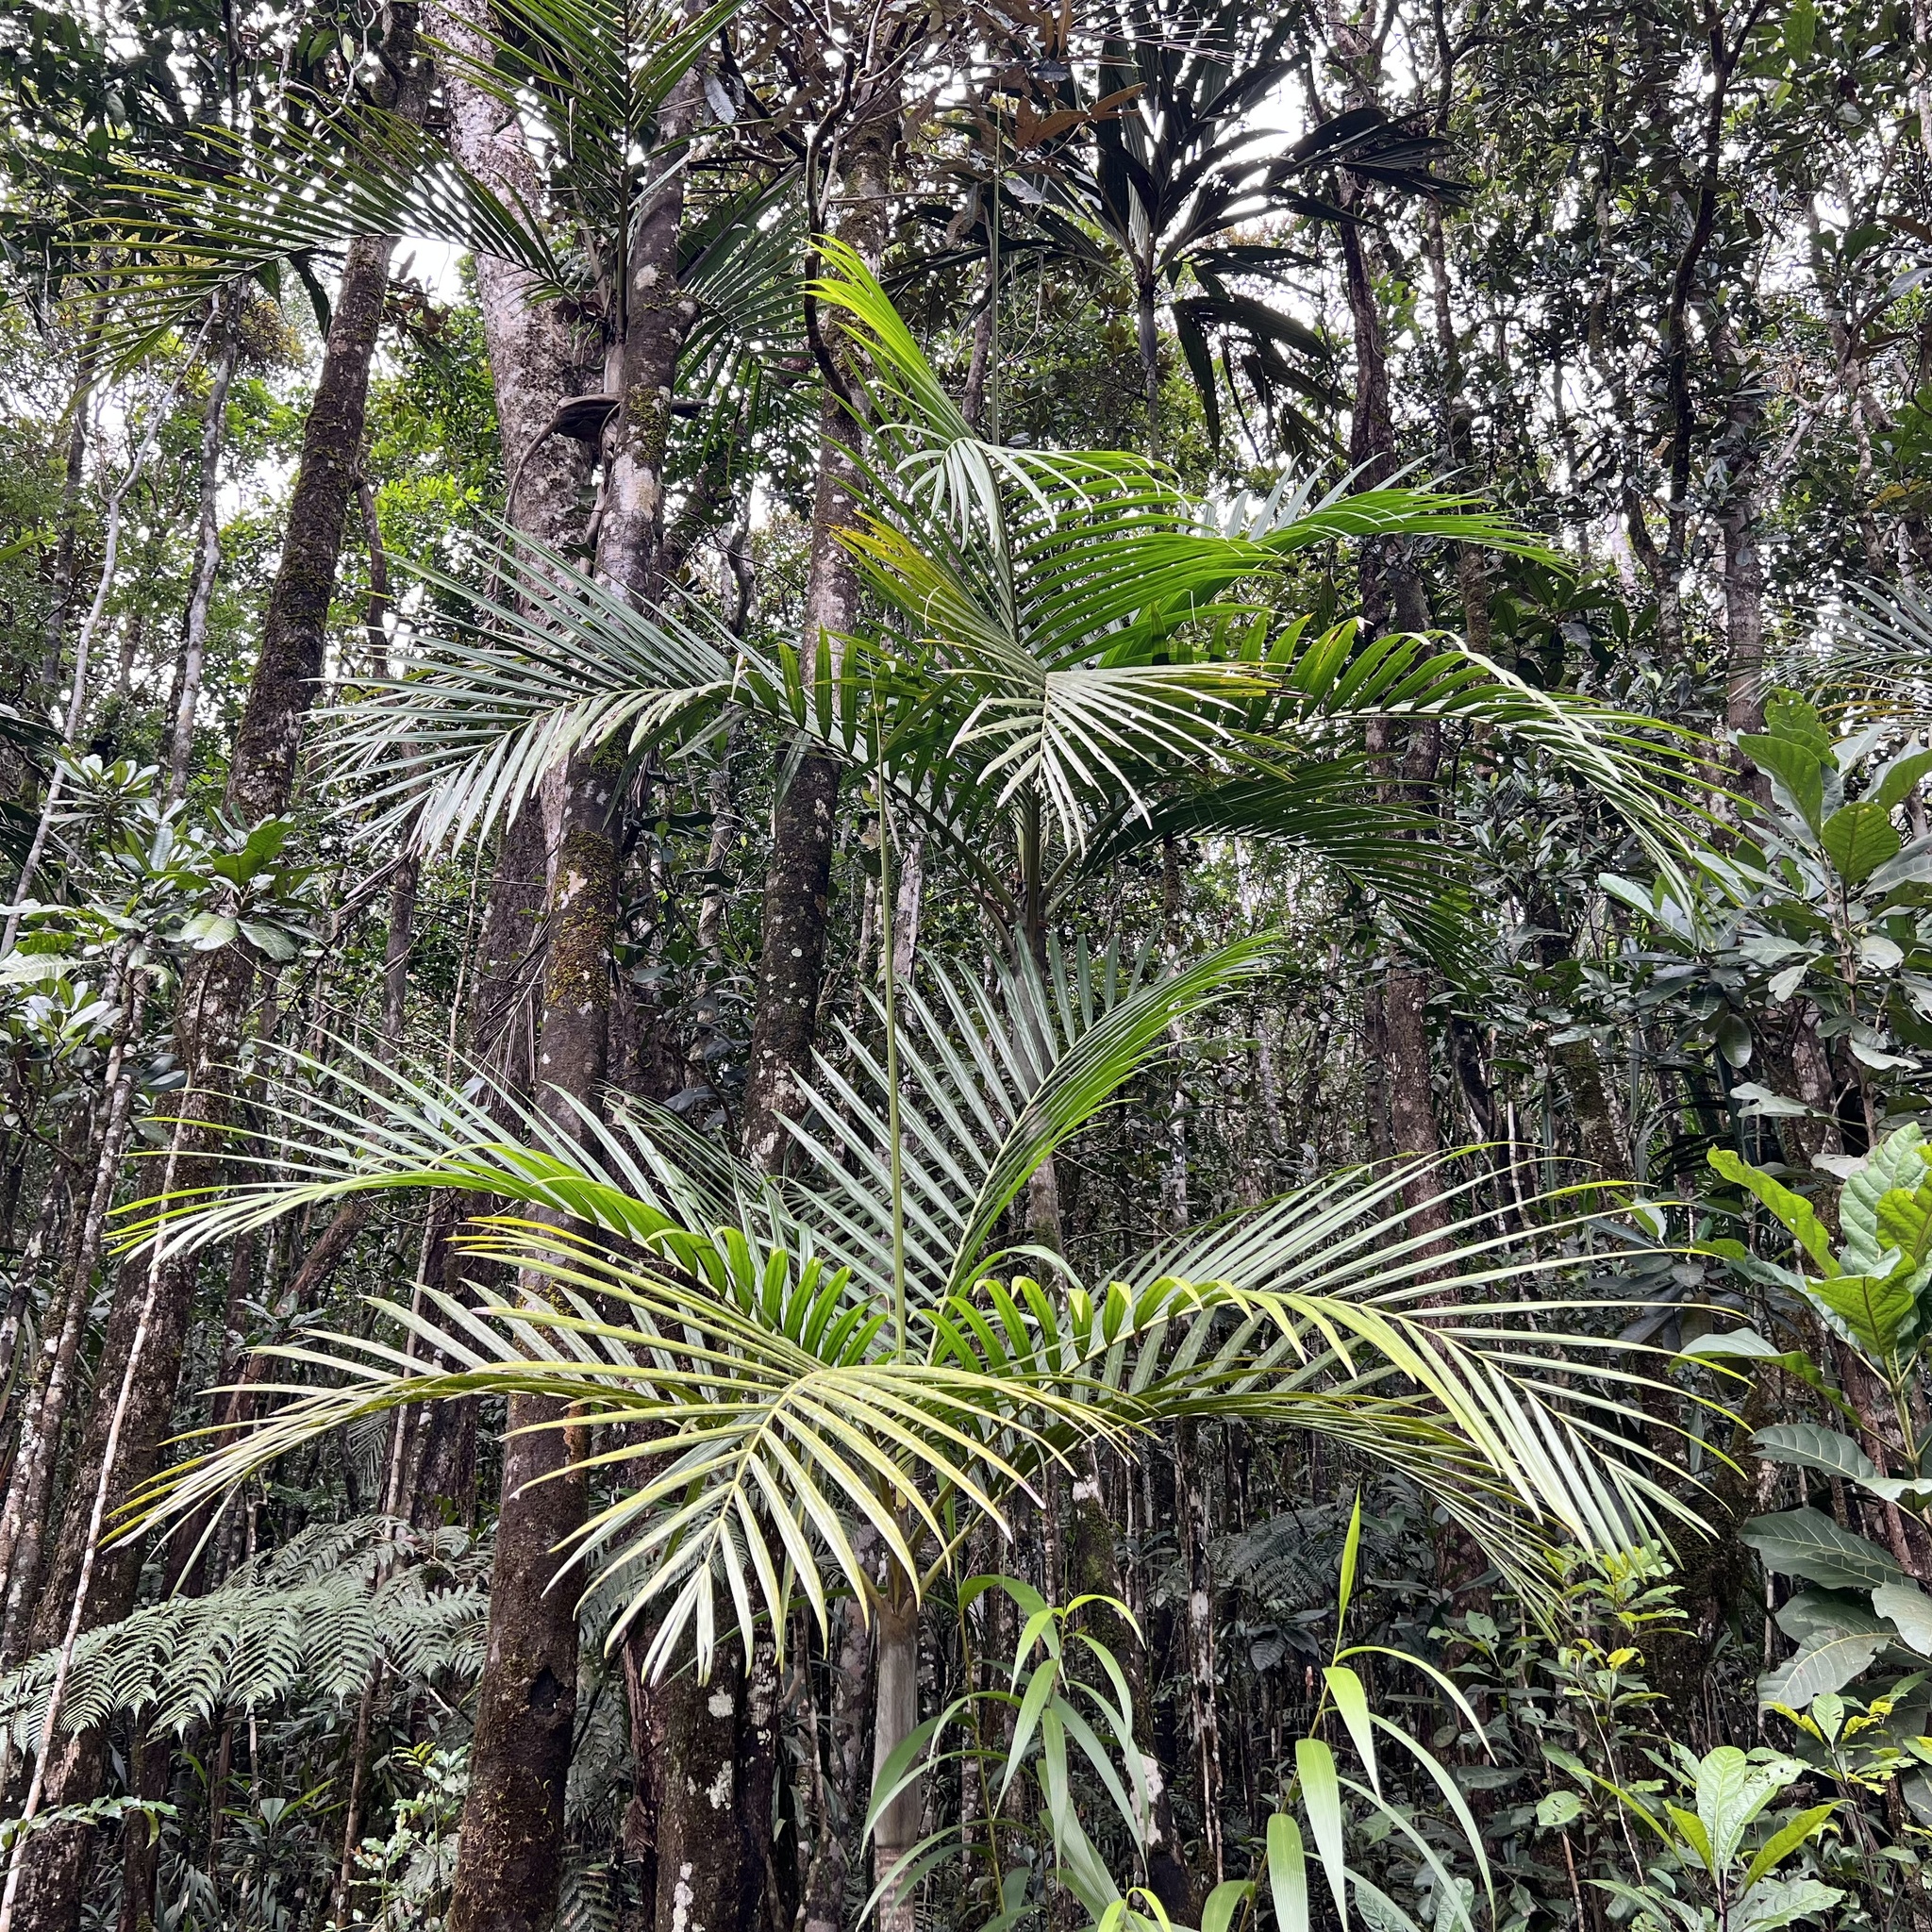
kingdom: Plantae
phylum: Tracheophyta
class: Liliopsida
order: Arecales
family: Arecaceae
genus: Cyphokentia
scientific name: Cyphokentia macrostachya
